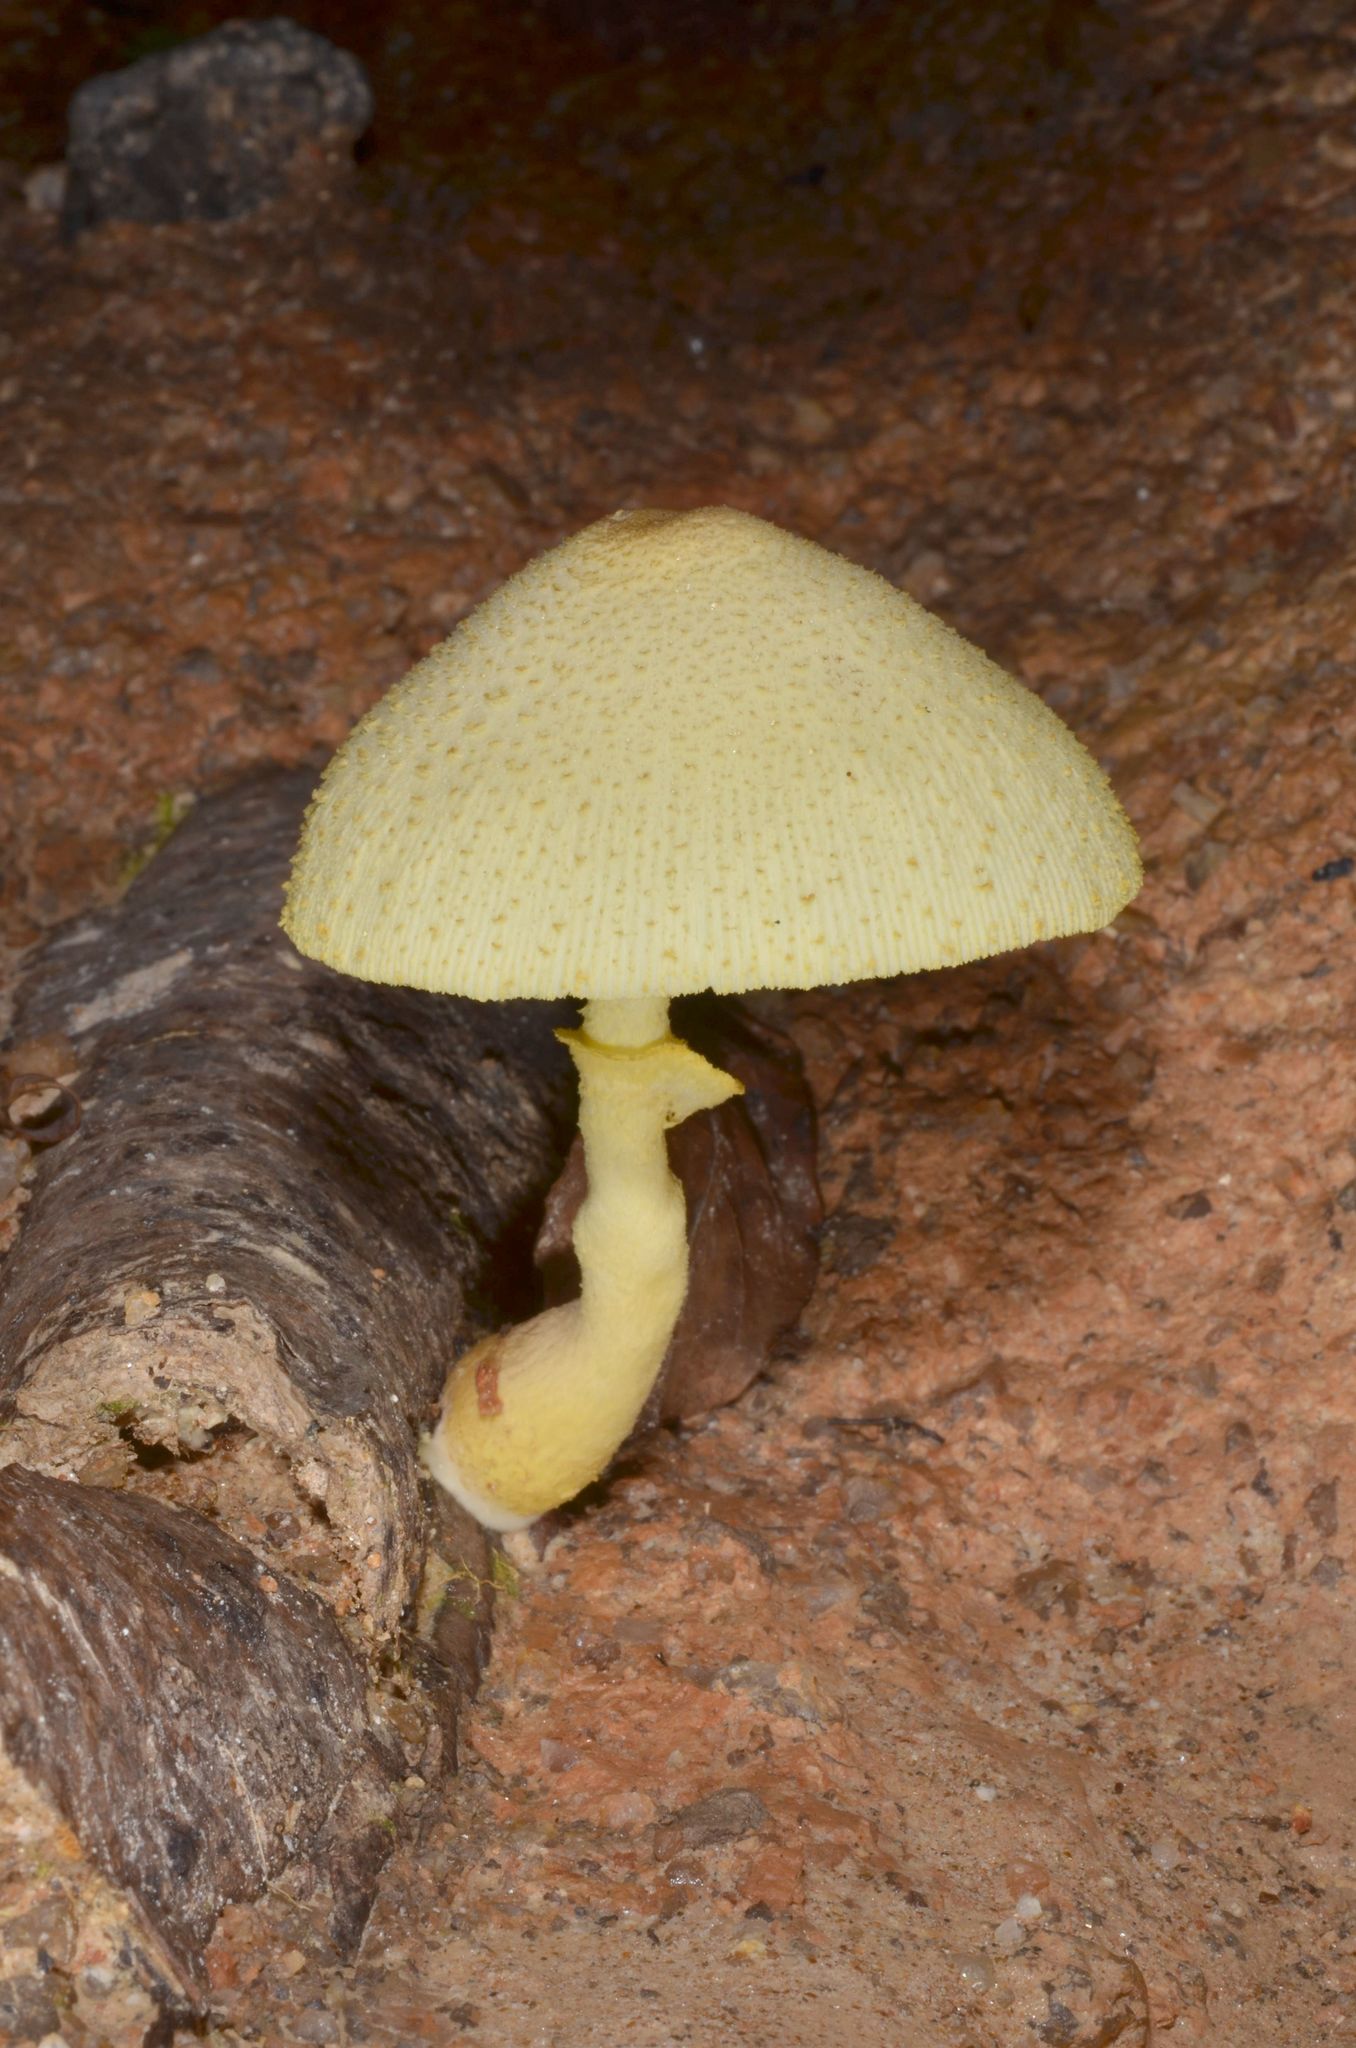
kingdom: Fungi
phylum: Basidiomycota
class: Agaricomycetes
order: Agaricales
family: Agaricaceae
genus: Leucocoprinus
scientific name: Leucocoprinus birnbaumii
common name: Plantpot dapperling
